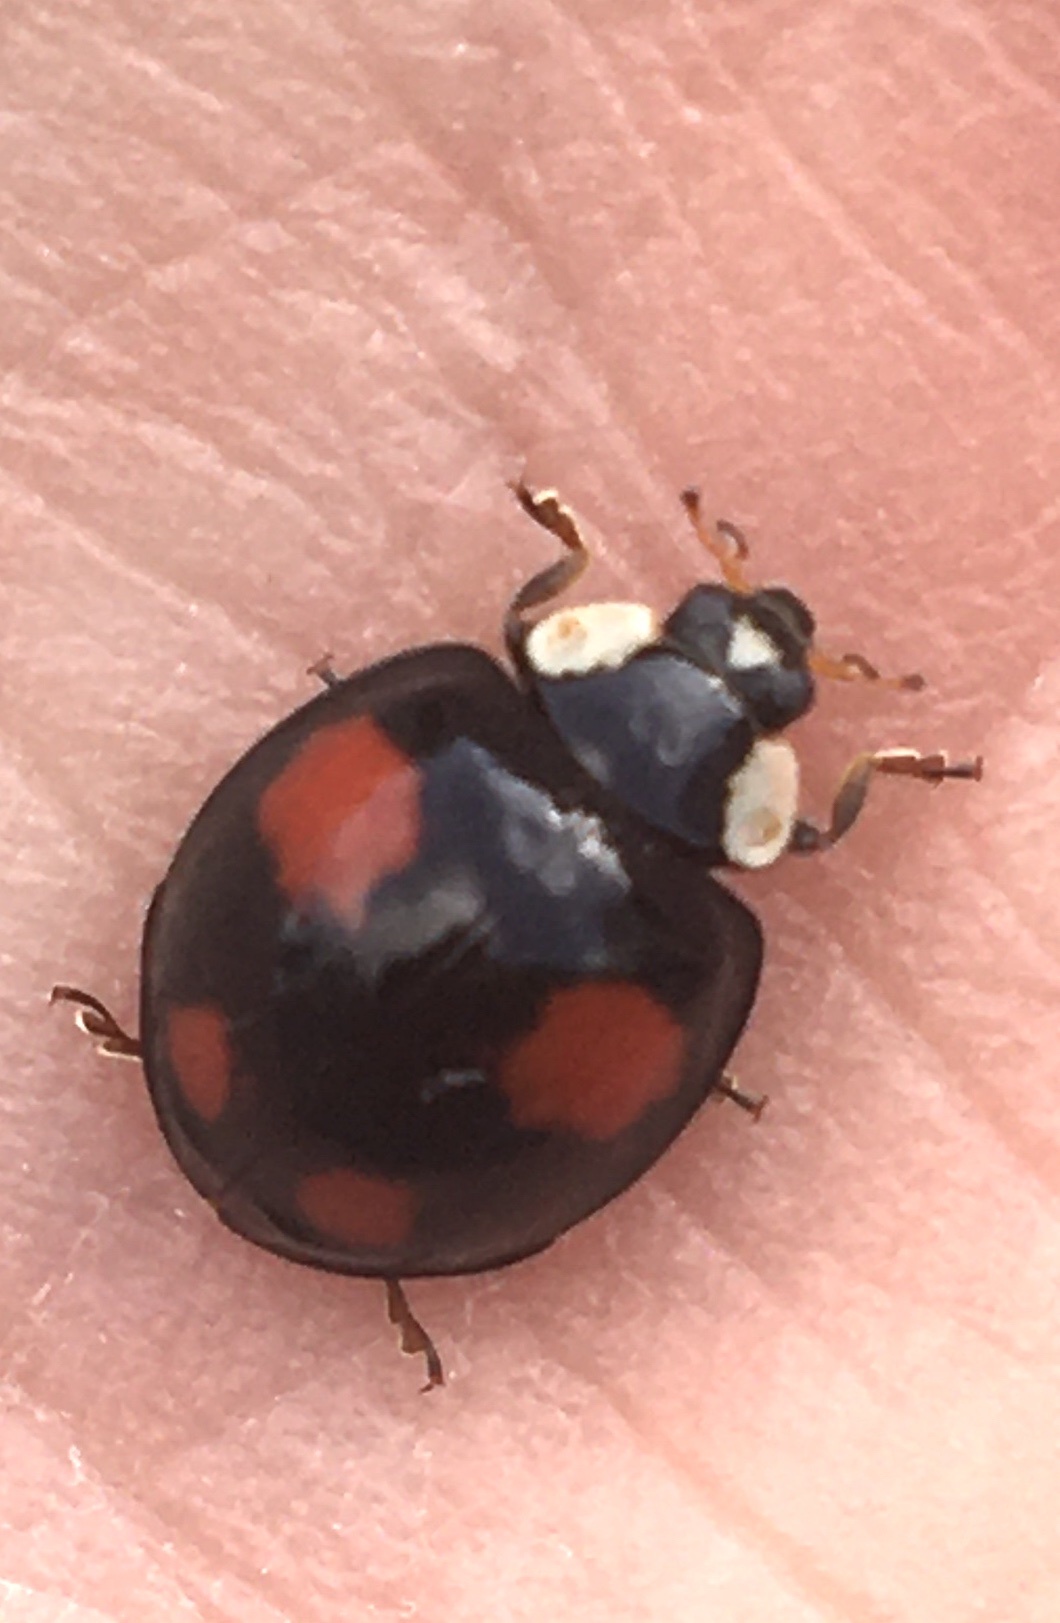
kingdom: Animalia
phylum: Arthropoda
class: Insecta
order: Coleoptera
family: Coccinellidae
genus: Harmonia
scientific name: Harmonia axyridis
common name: Harlequin ladybird
